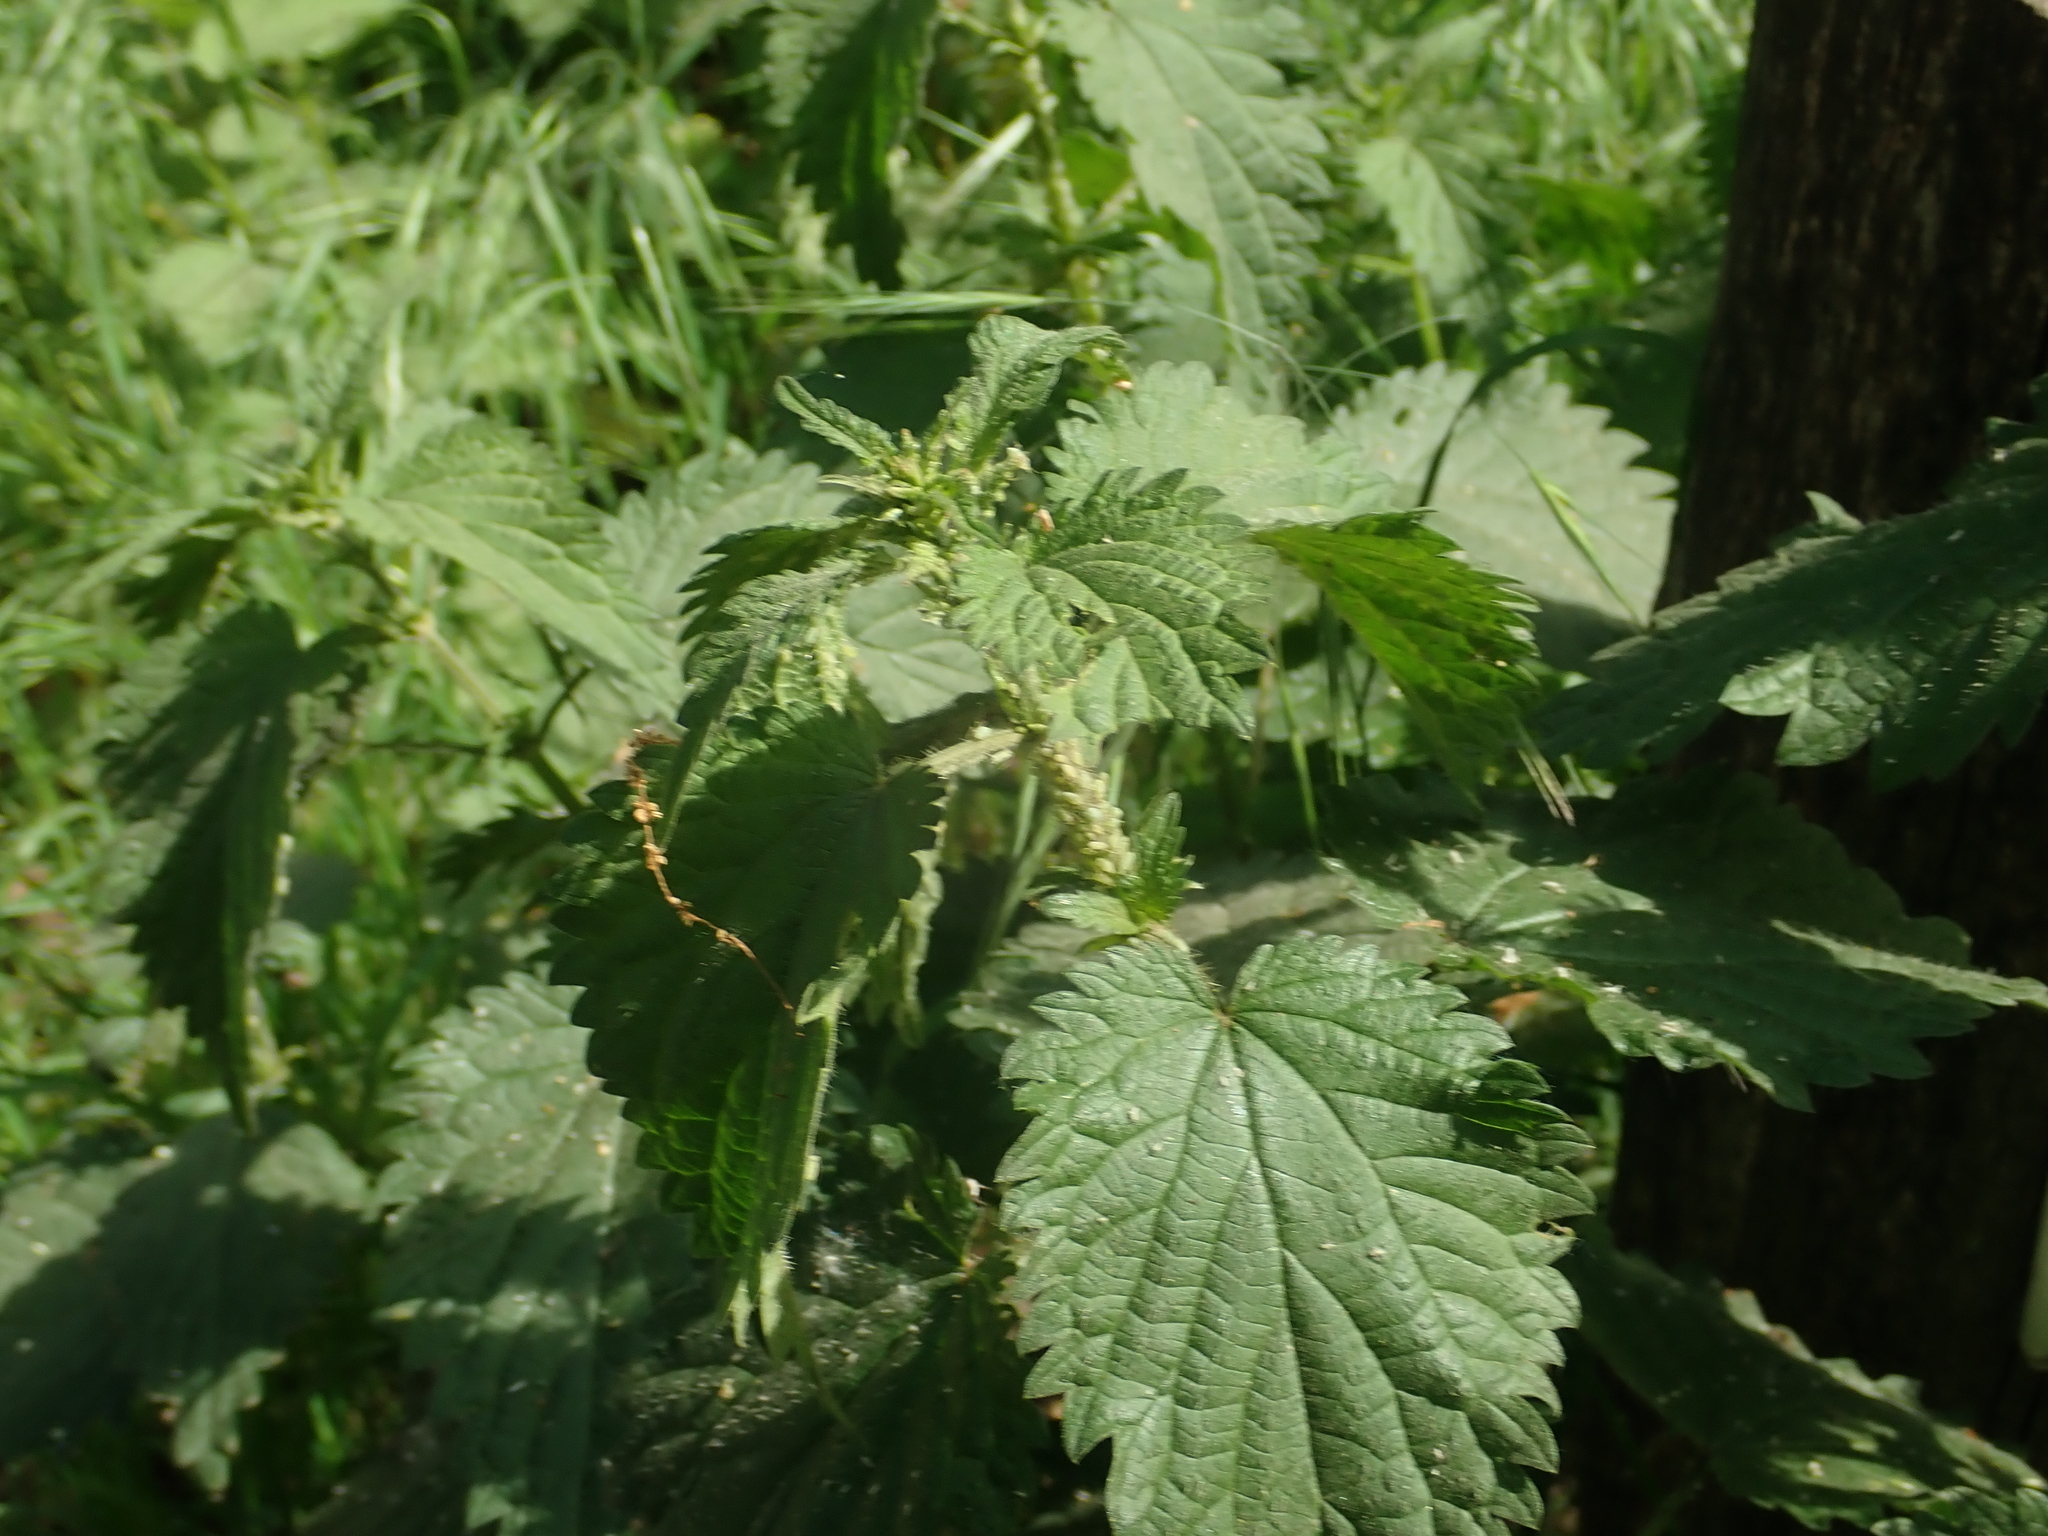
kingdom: Plantae
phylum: Tracheophyta
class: Magnoliopsida
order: Rosales
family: Urticaceae
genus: Urtica
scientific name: Urtica dioica
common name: Common nettle
